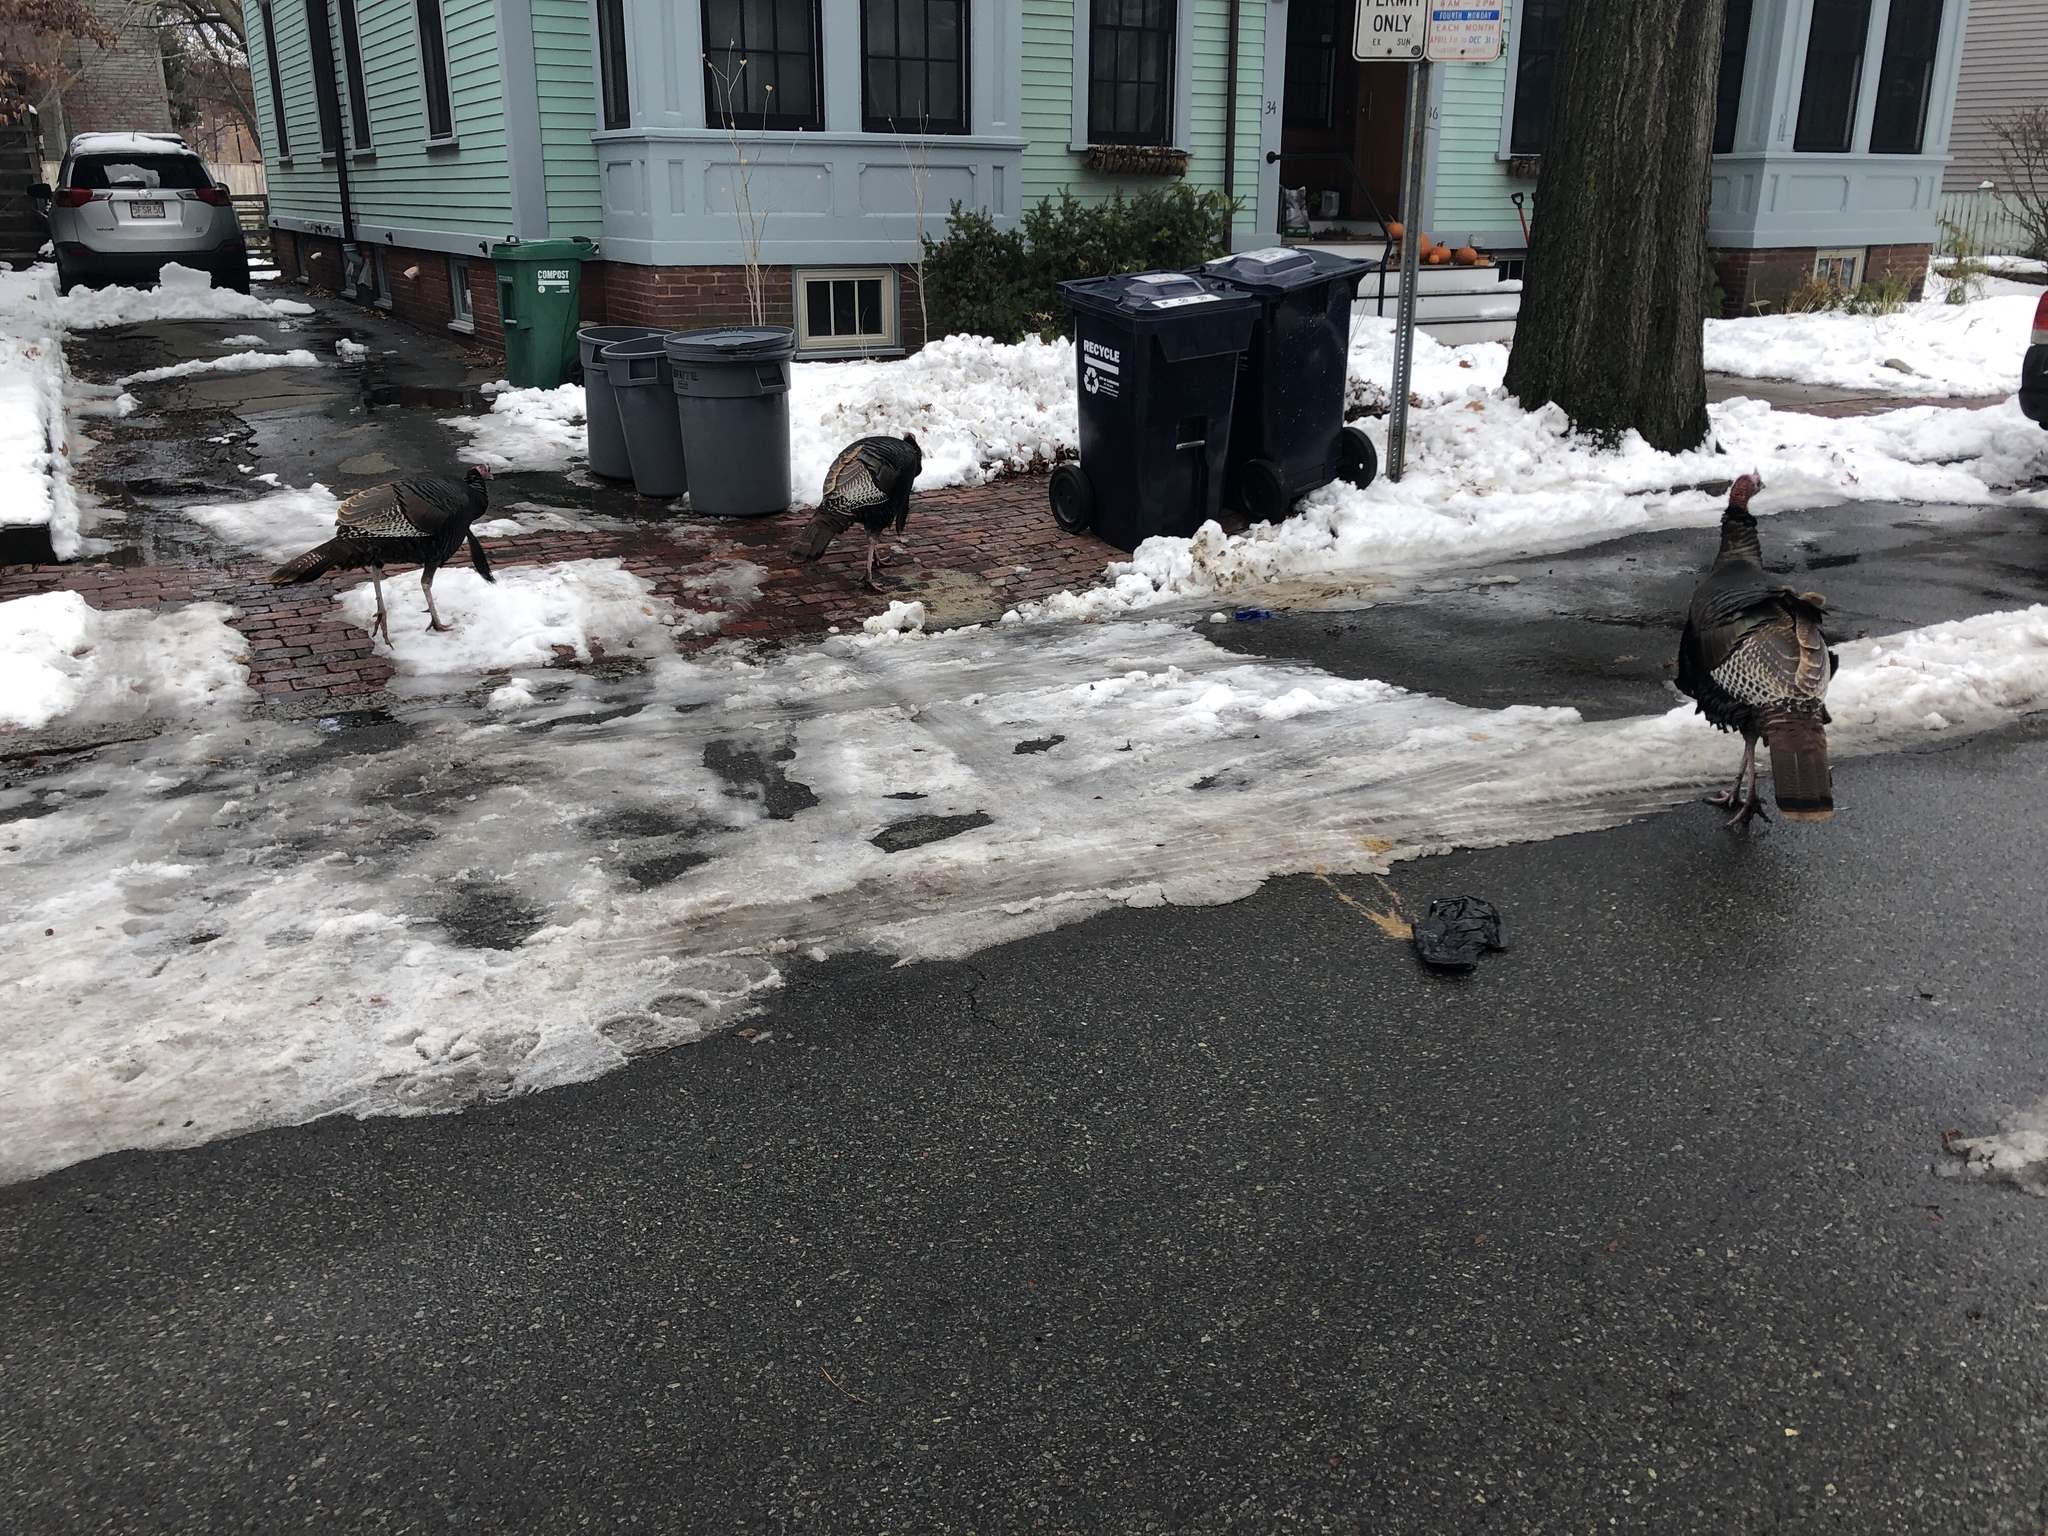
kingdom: Animalia
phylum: Chordata
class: Aves
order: Galliformes
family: Phasianidae
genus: Meleagris
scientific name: Meleagris gallopavo
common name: Wild turkey
